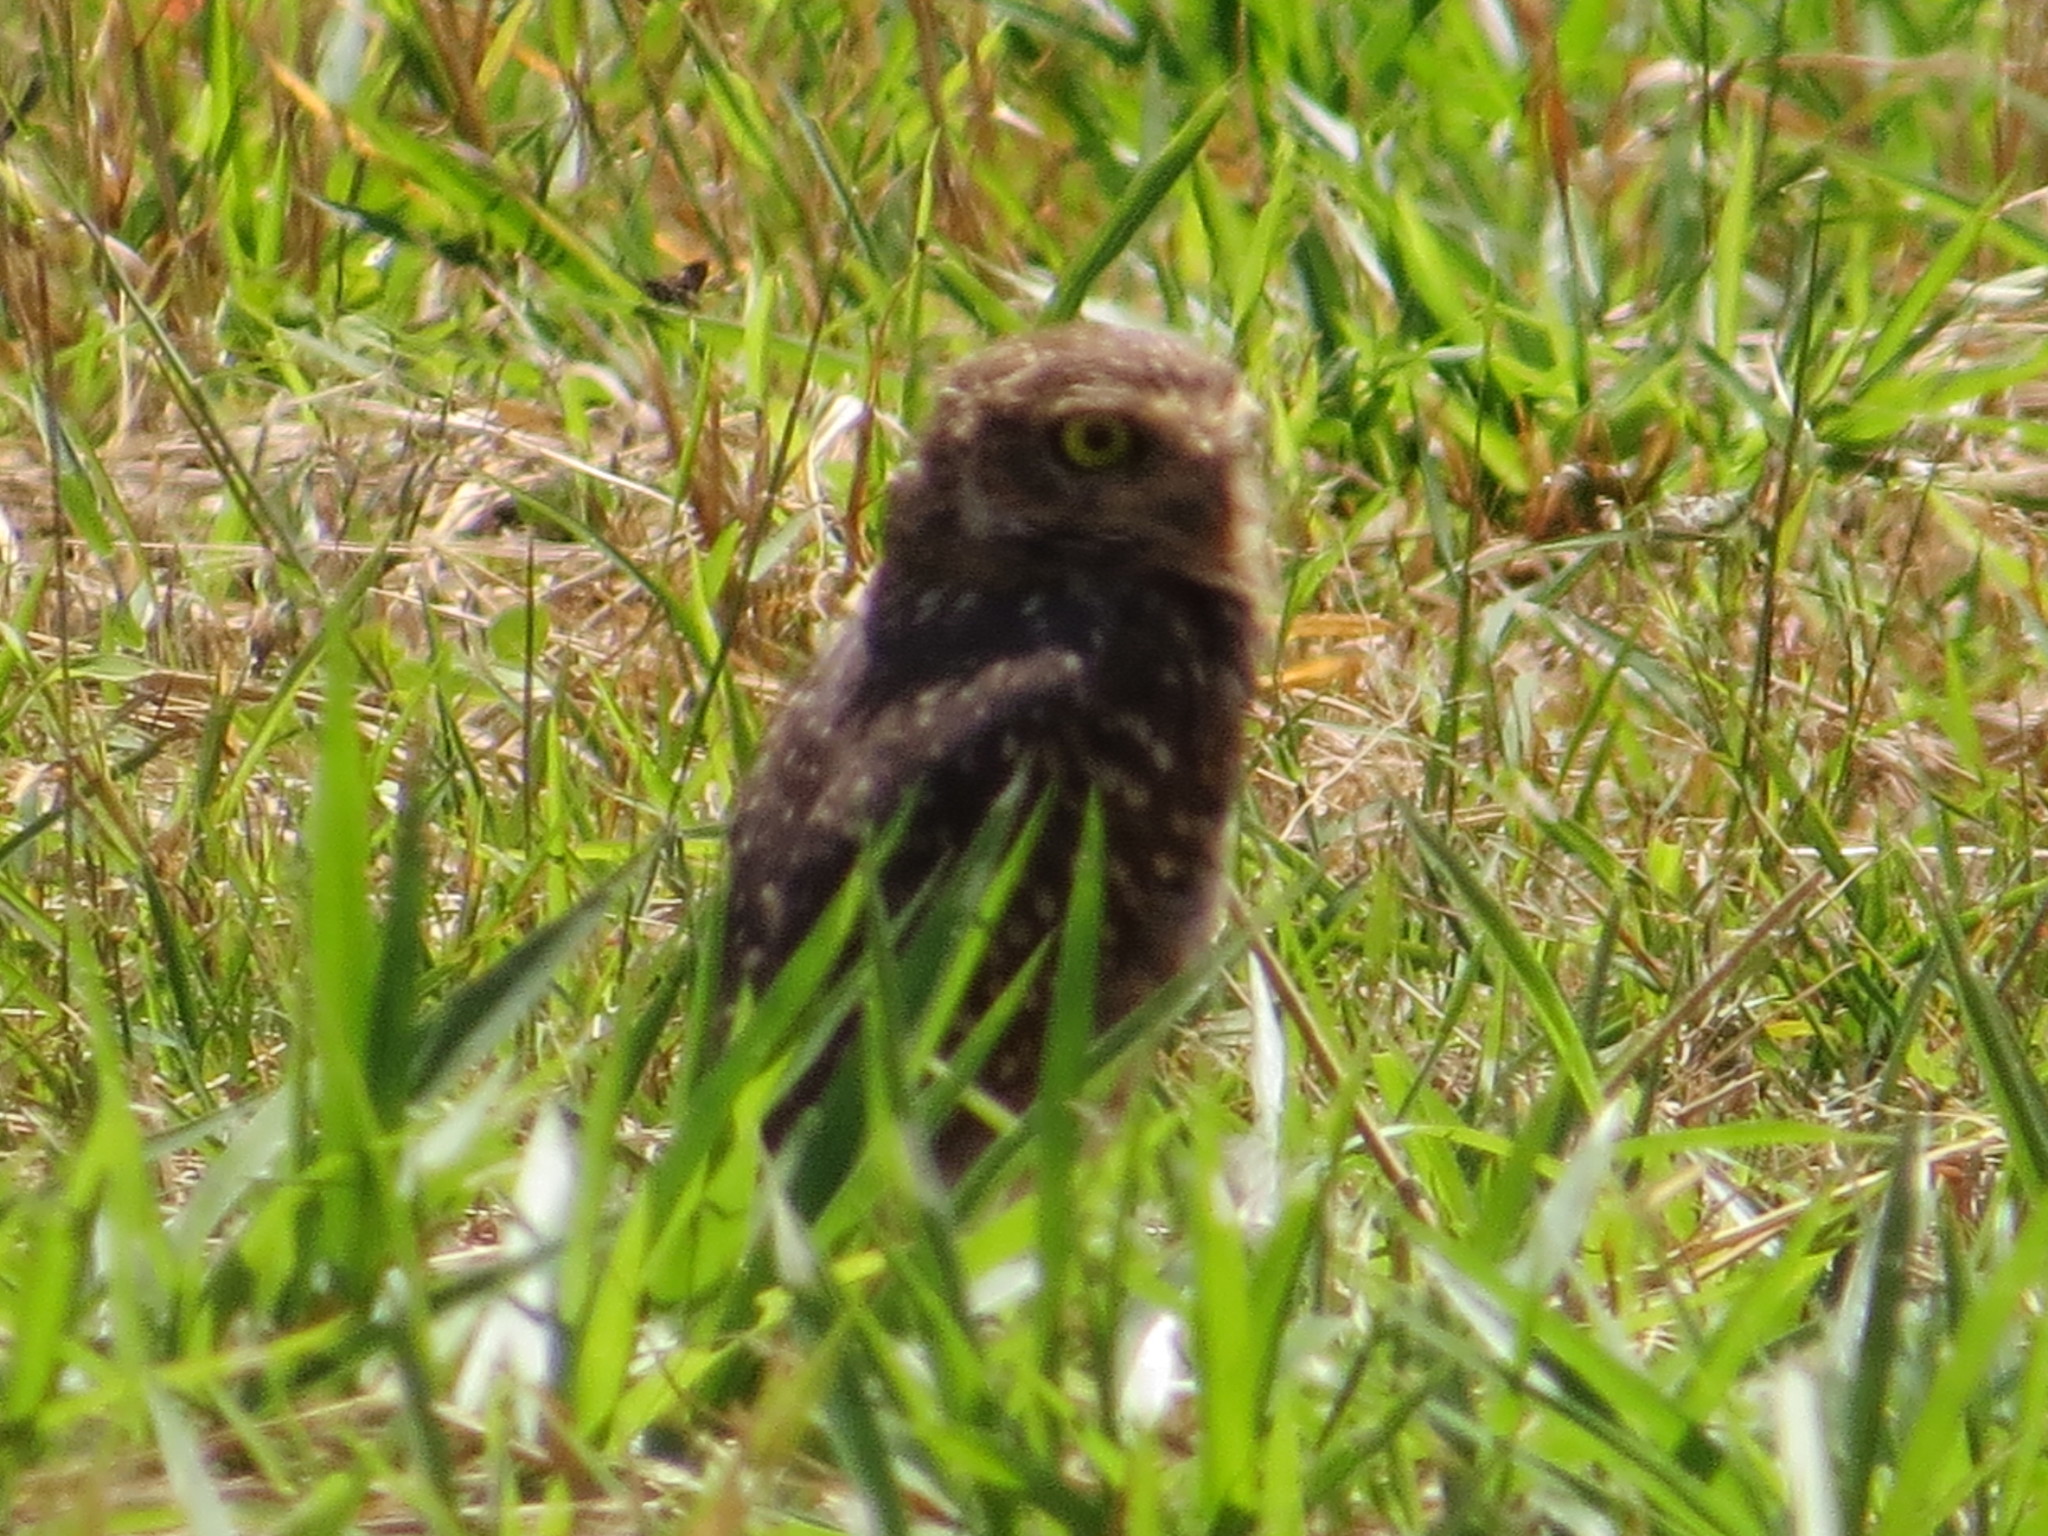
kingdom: Animalia
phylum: Chordata
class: Aves
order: Strigiformes
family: Strigidae
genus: Athene
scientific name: Athene cunicularia
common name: Burrowing owl
